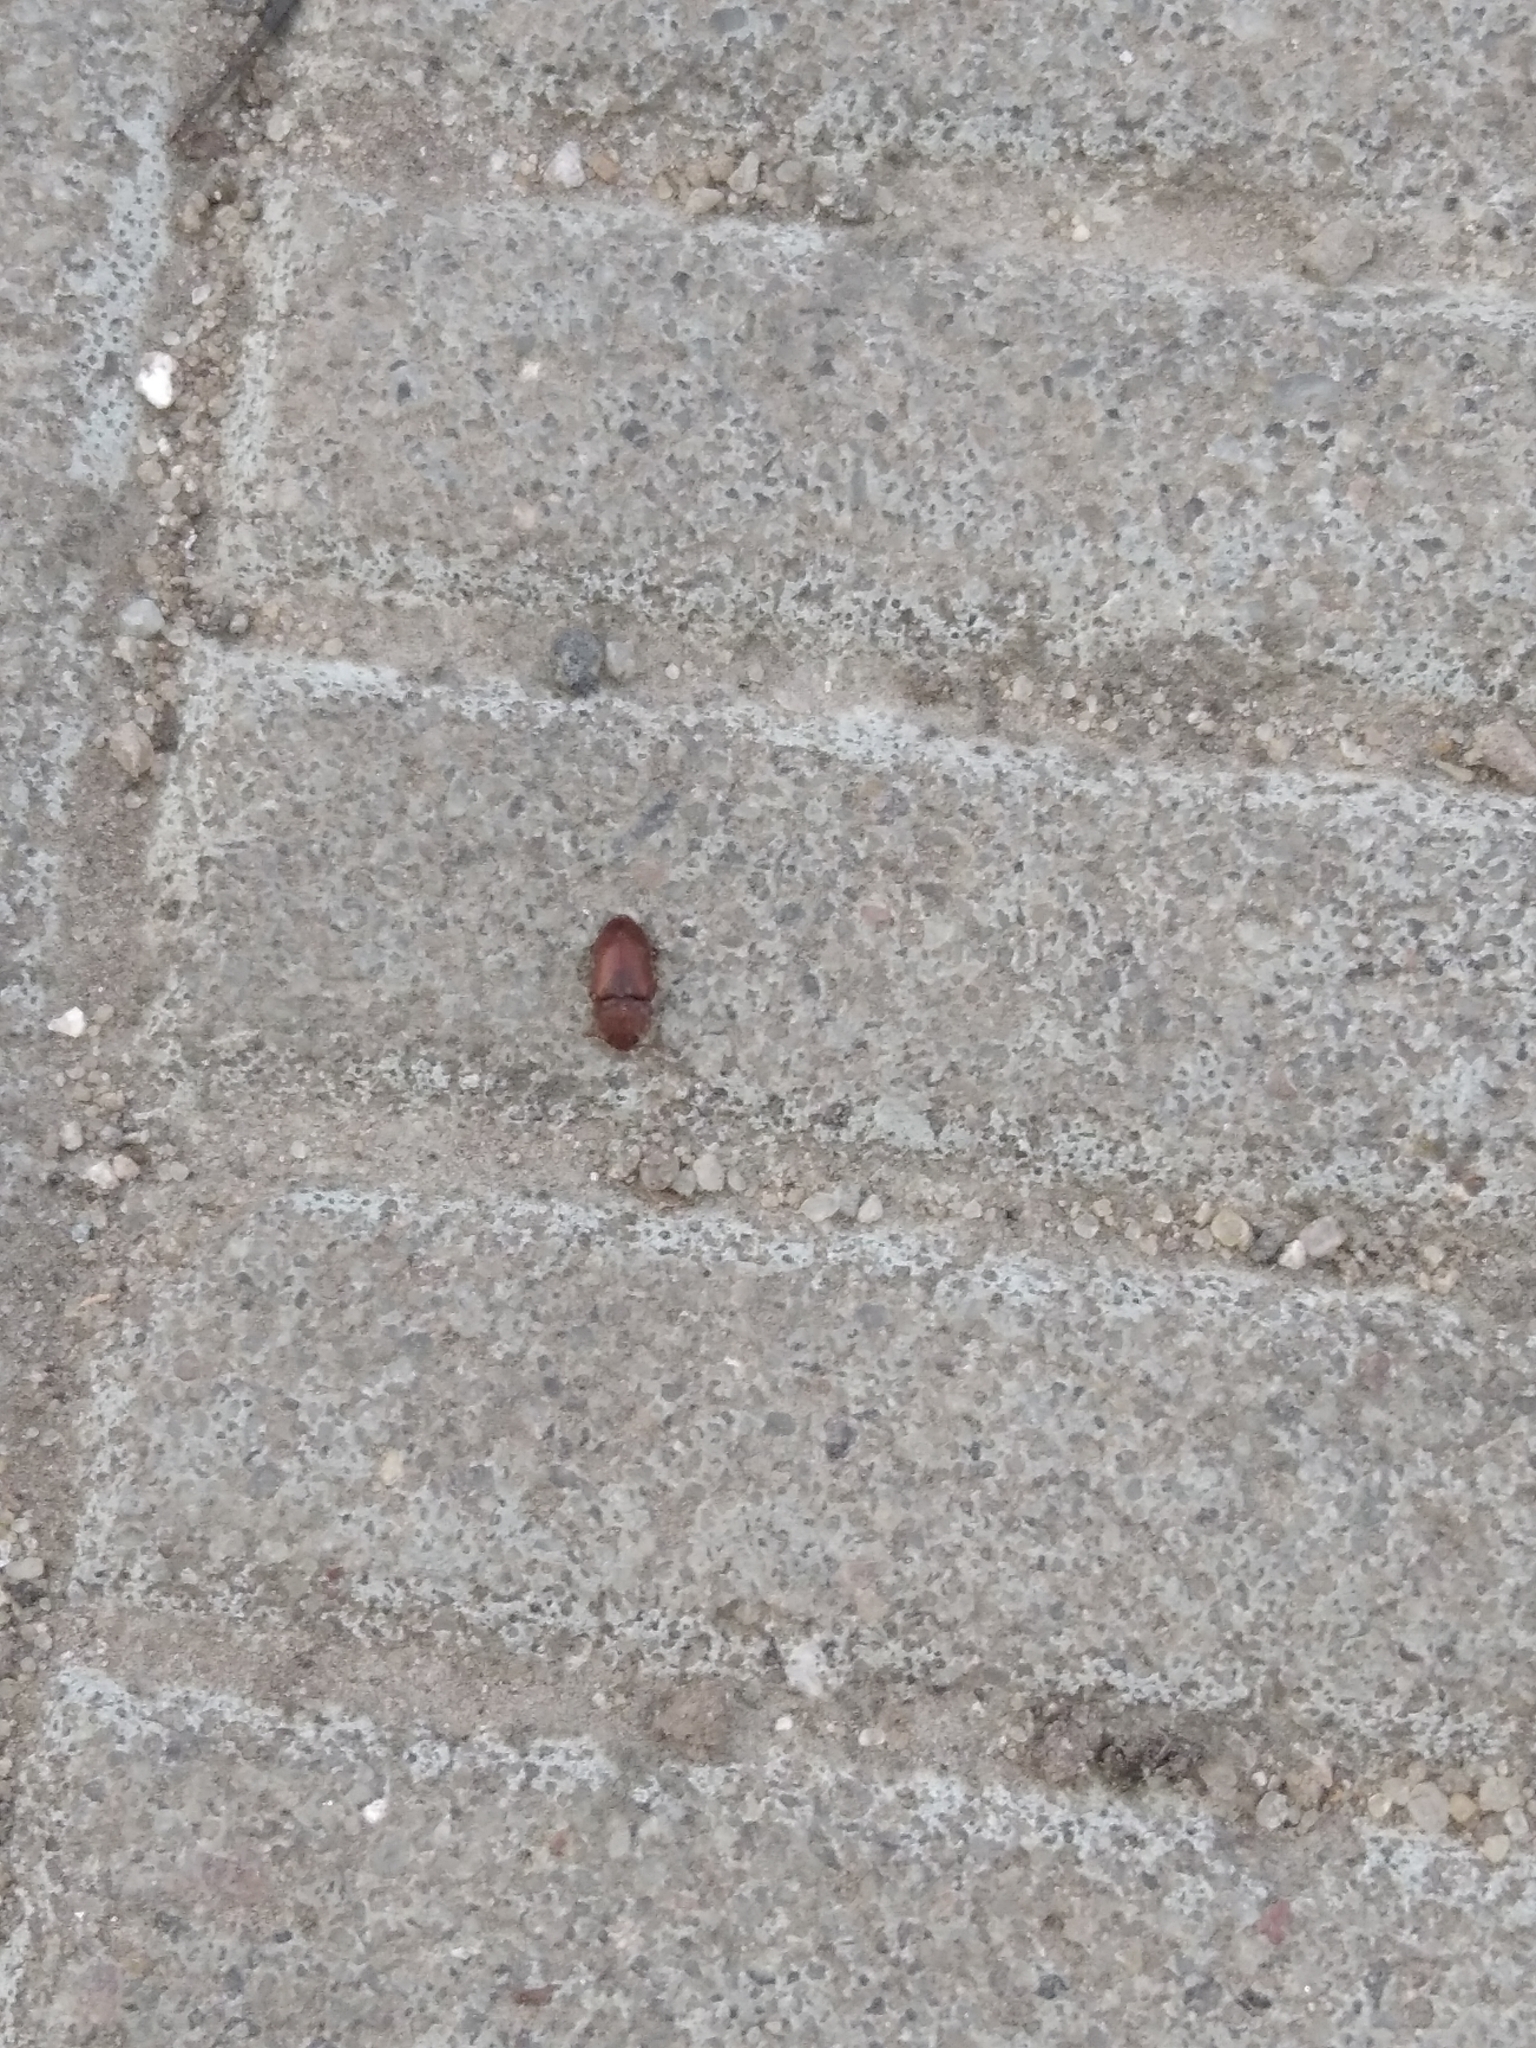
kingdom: Animalia
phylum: Arthropoda
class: Insecta
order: Coleoptera
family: Nitidulidae
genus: Epuraea
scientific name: Epuraea
